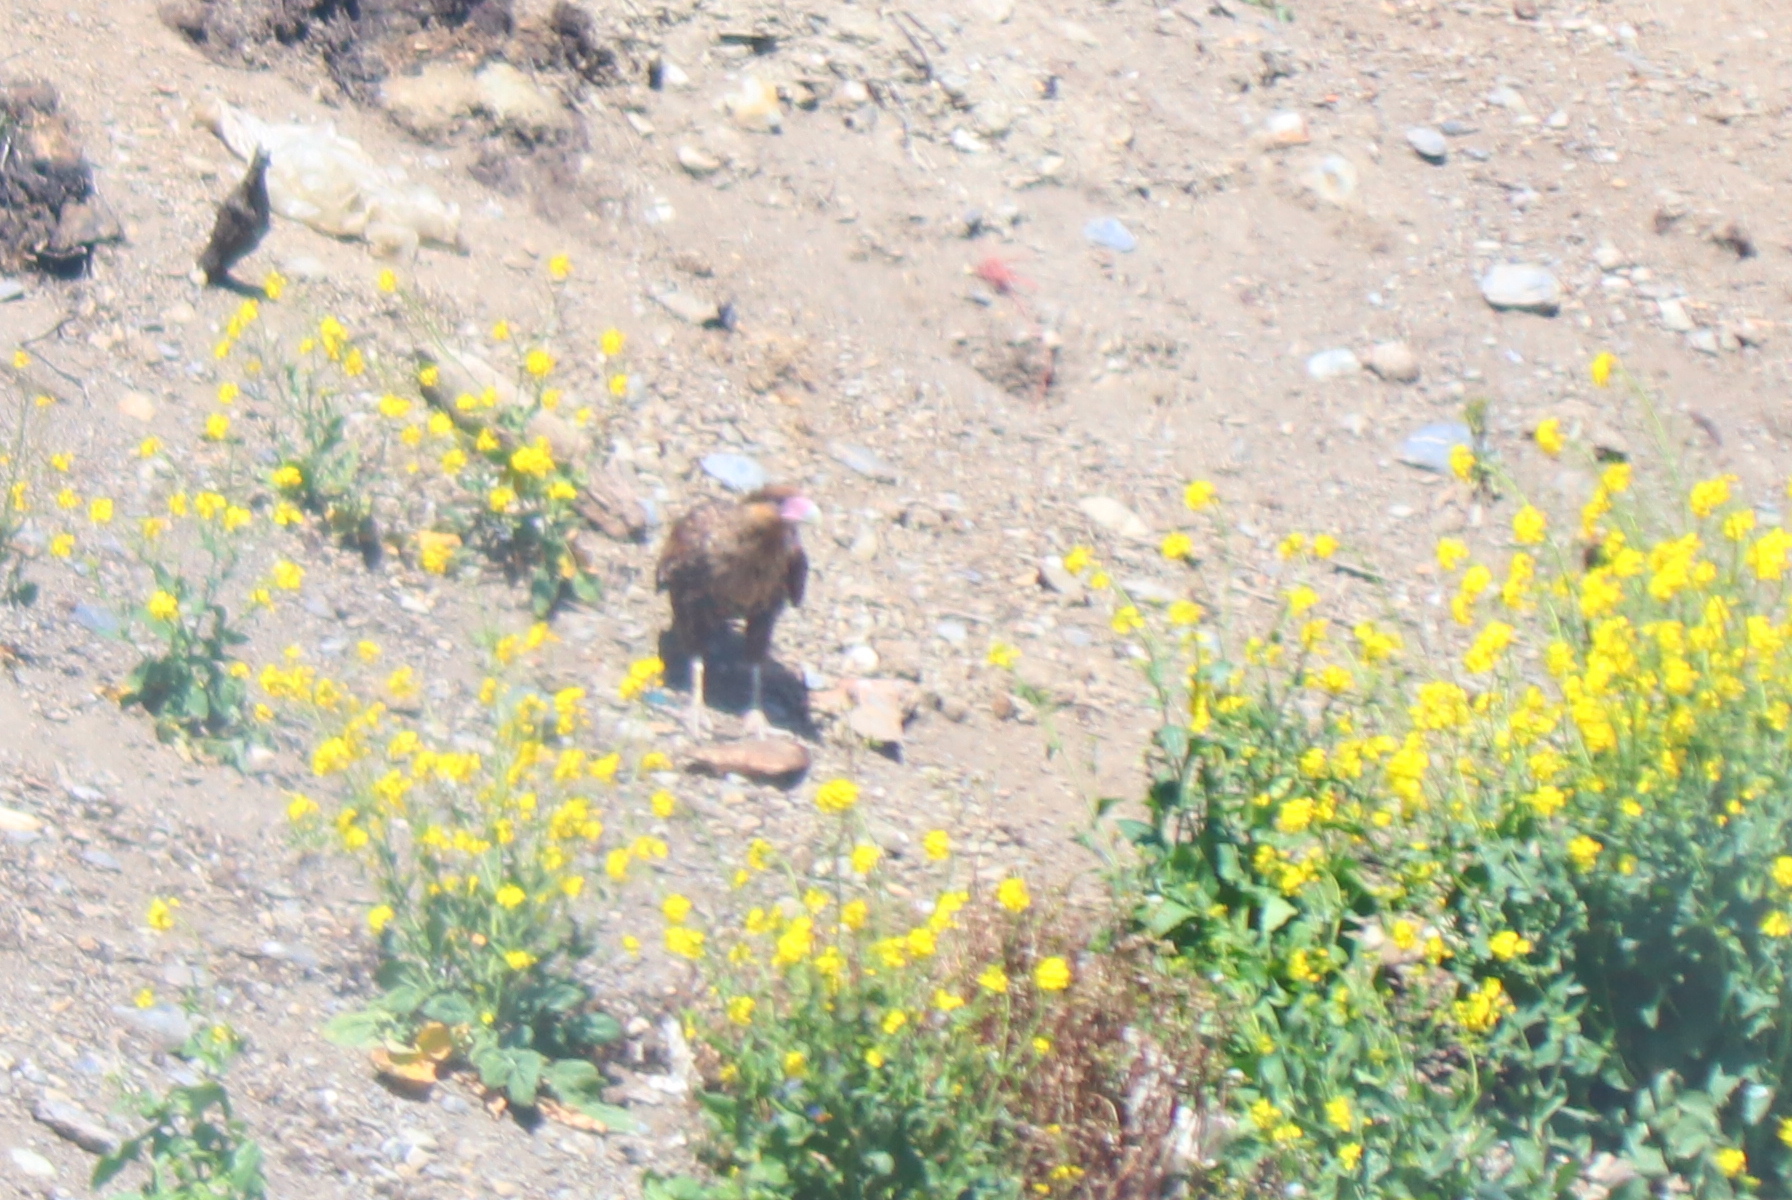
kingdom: Animalia
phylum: Chordata
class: Aves
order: Falconiformes
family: Falconidae
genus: Caracara
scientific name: Caracara plancus
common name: Southern caracara
